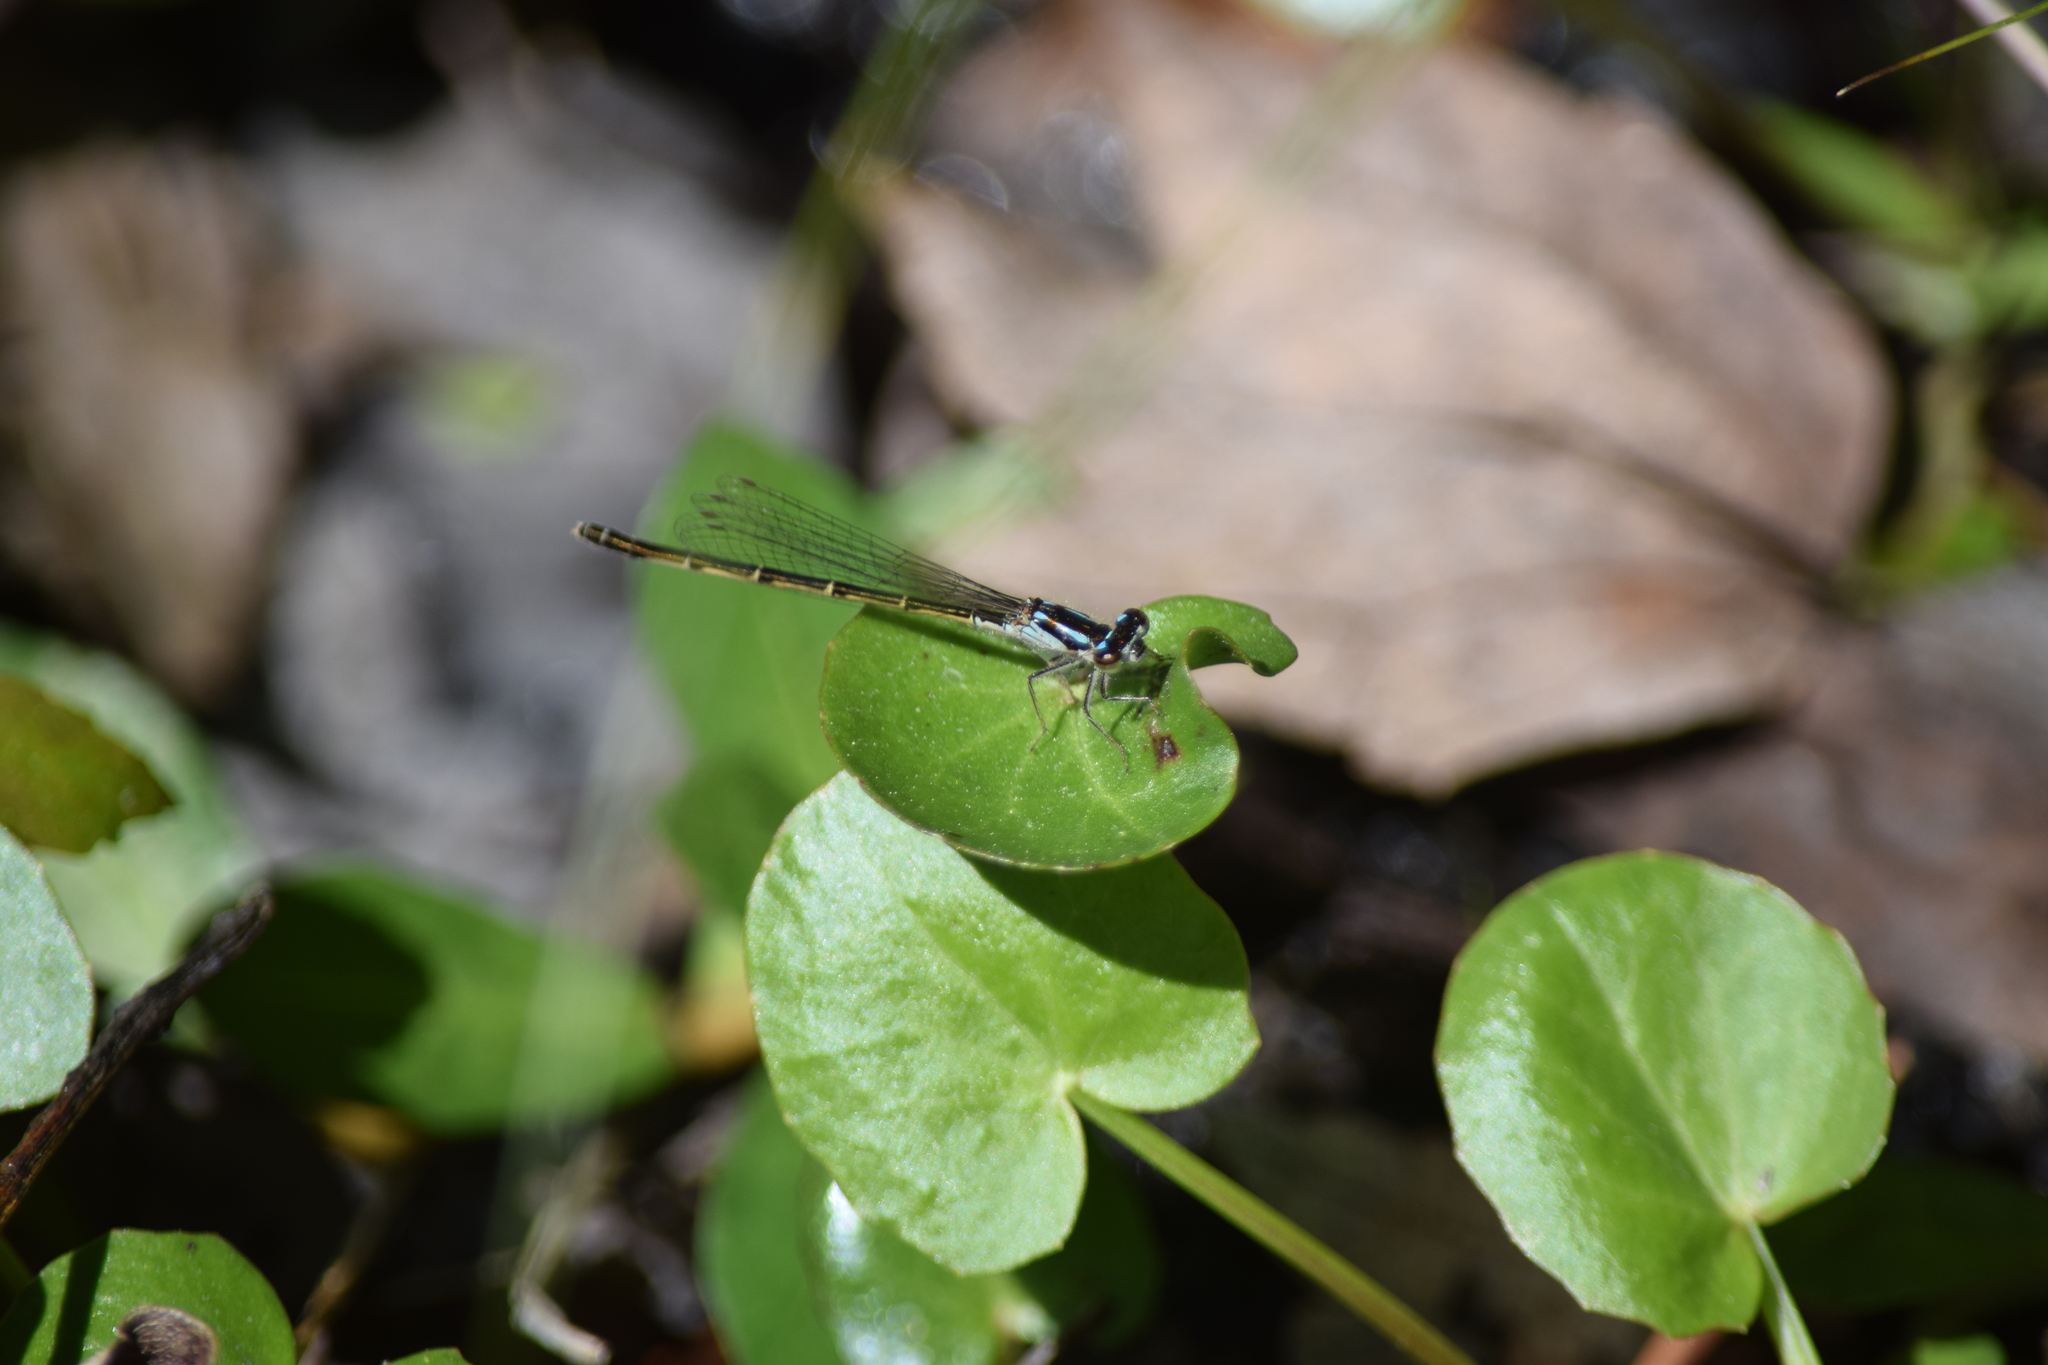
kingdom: Animalia
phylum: Arthropoda
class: Insecta
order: Odonata
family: Coenagrionidae
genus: Ischnura
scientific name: Ischnura posita
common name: Fragile forktail
